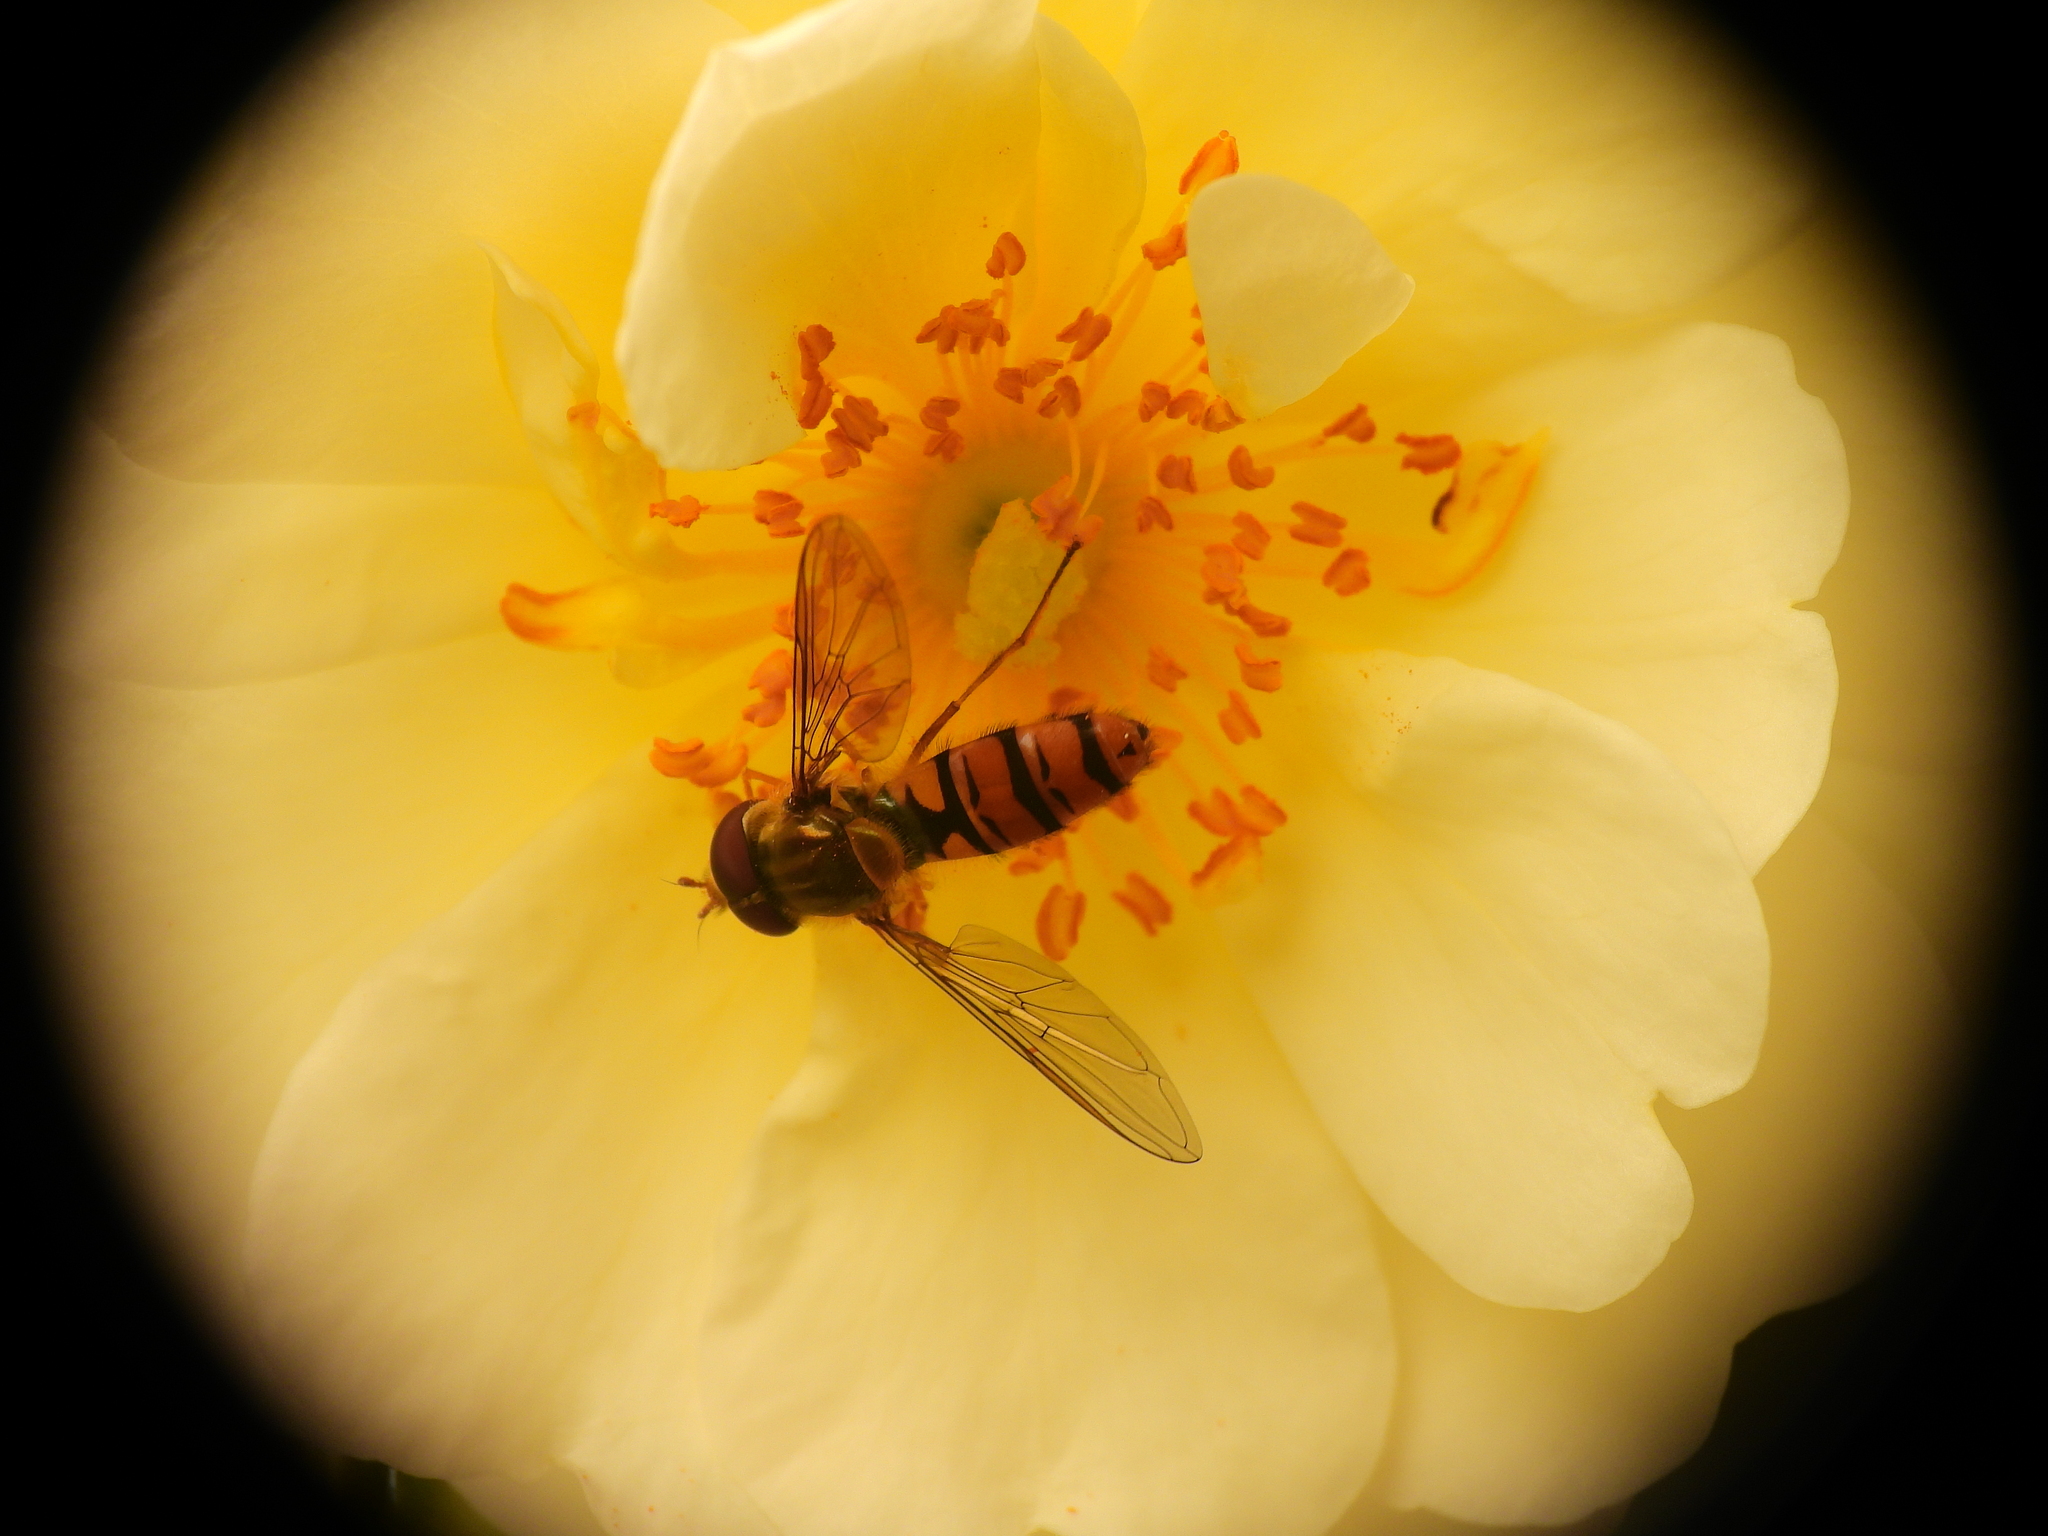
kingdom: Animalia
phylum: Arthropoda
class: Insecta
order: Diptera
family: Syrphidae
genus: Episyrphus
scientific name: Episyrphus balteatus
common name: Marmalade hoverfly
